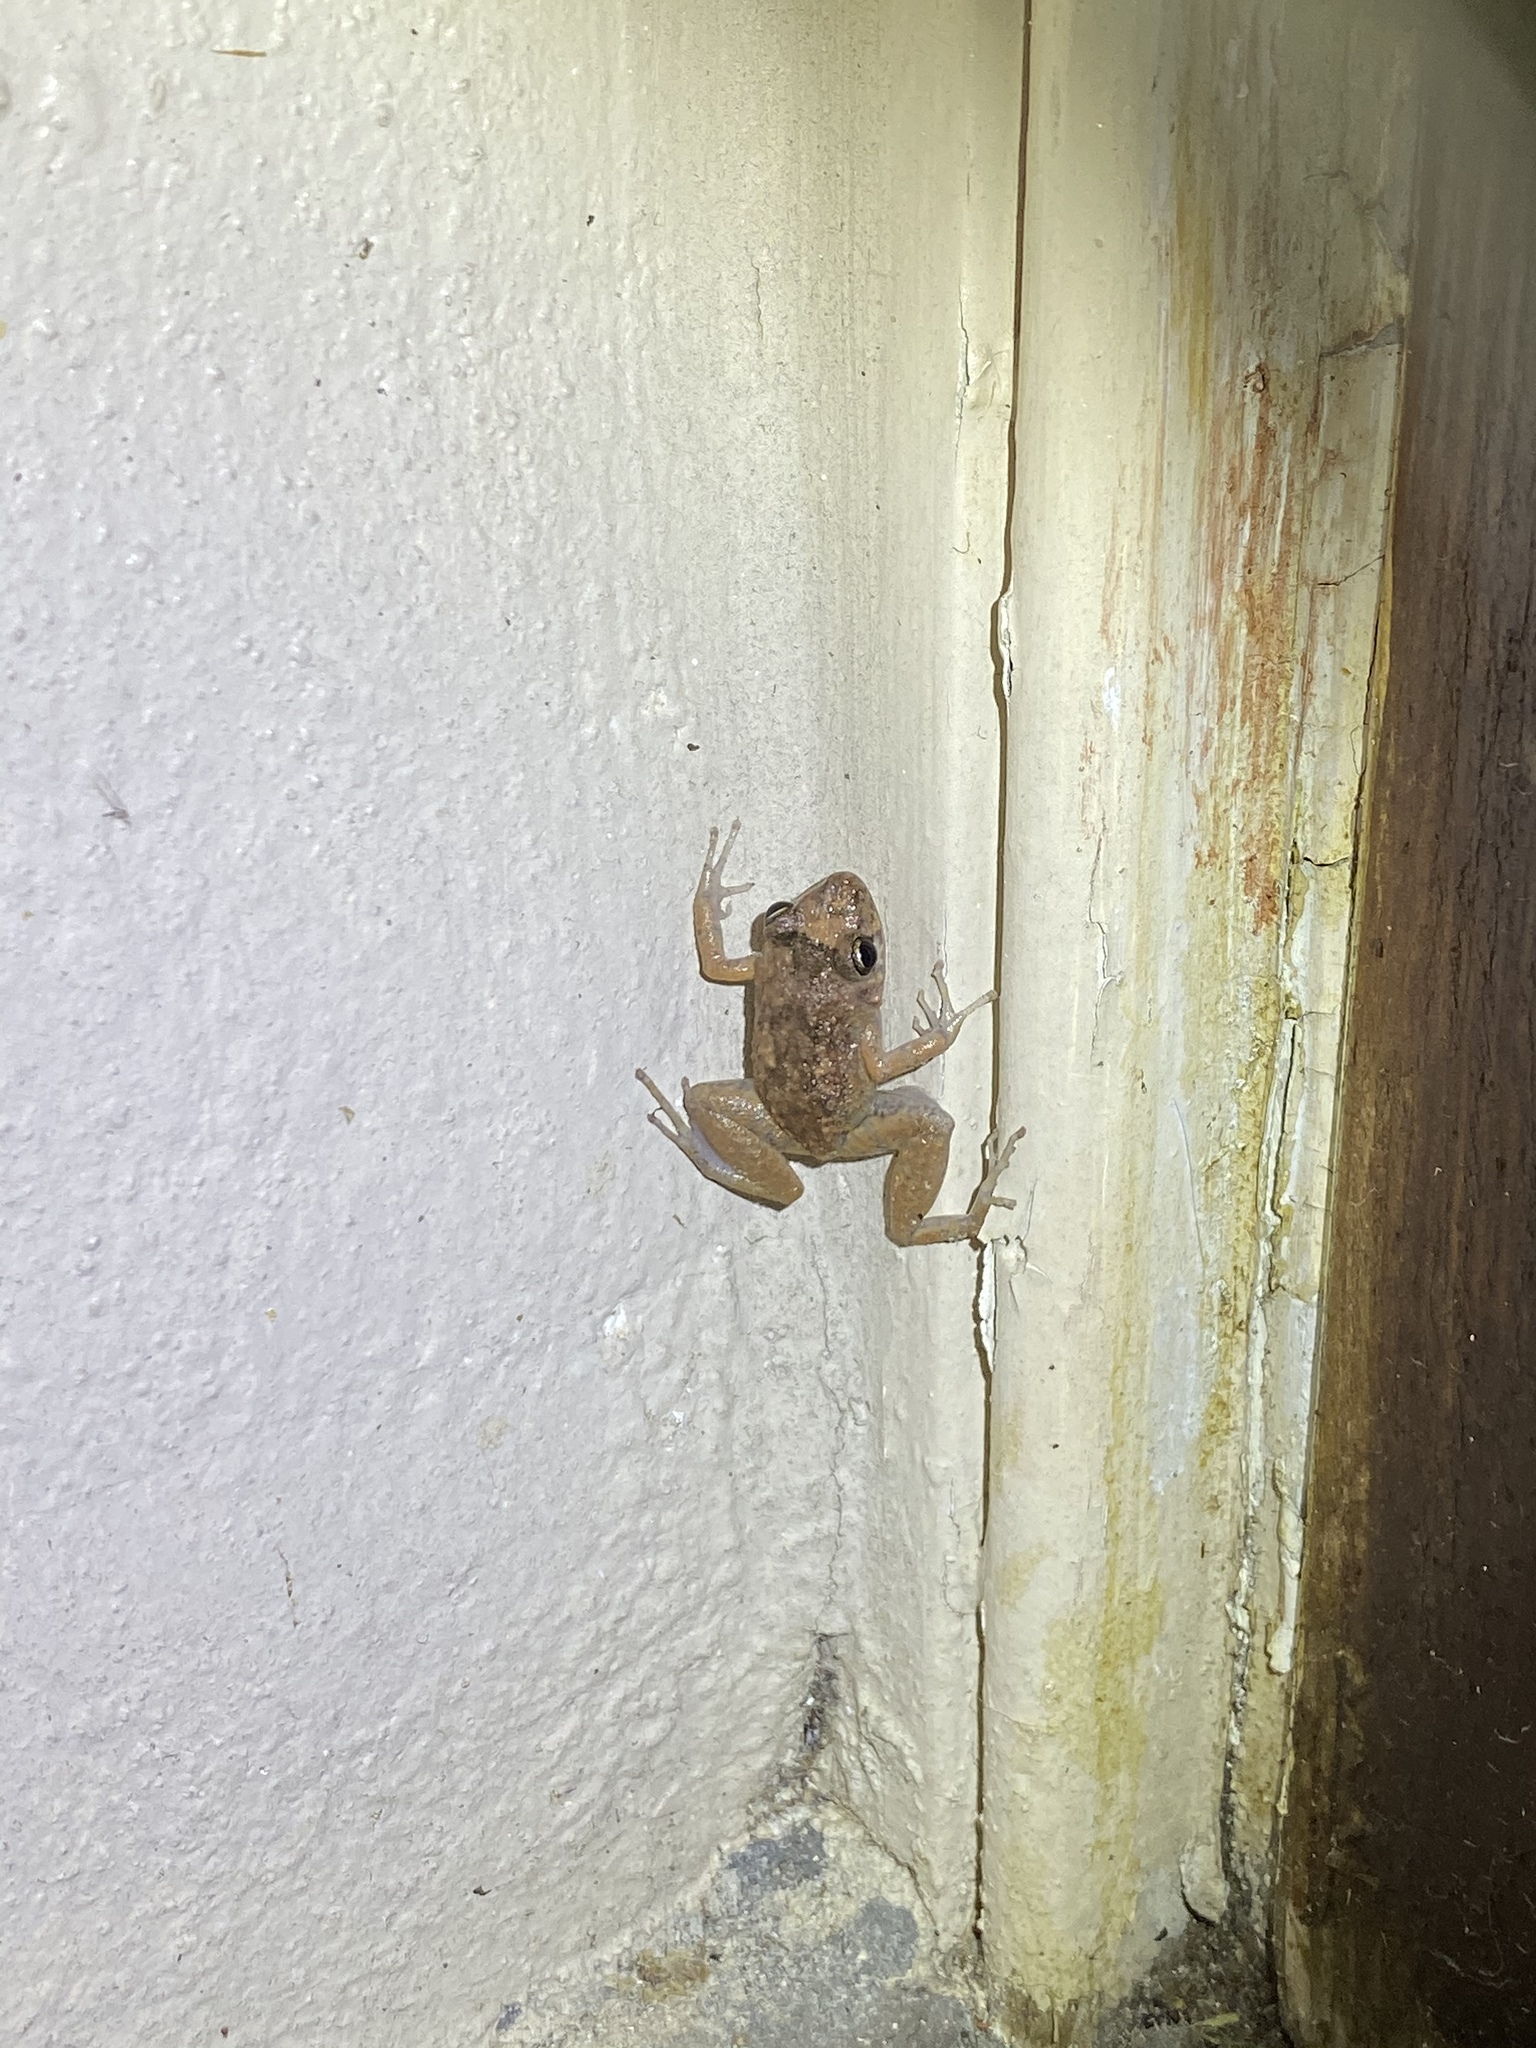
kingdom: Animalia
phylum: Chordata
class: Amphibia
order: Anura
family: Eleutherodactylidae
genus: Eleutherodactylus
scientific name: Eleutherodactylus planirostris
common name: Greenhouse frog
